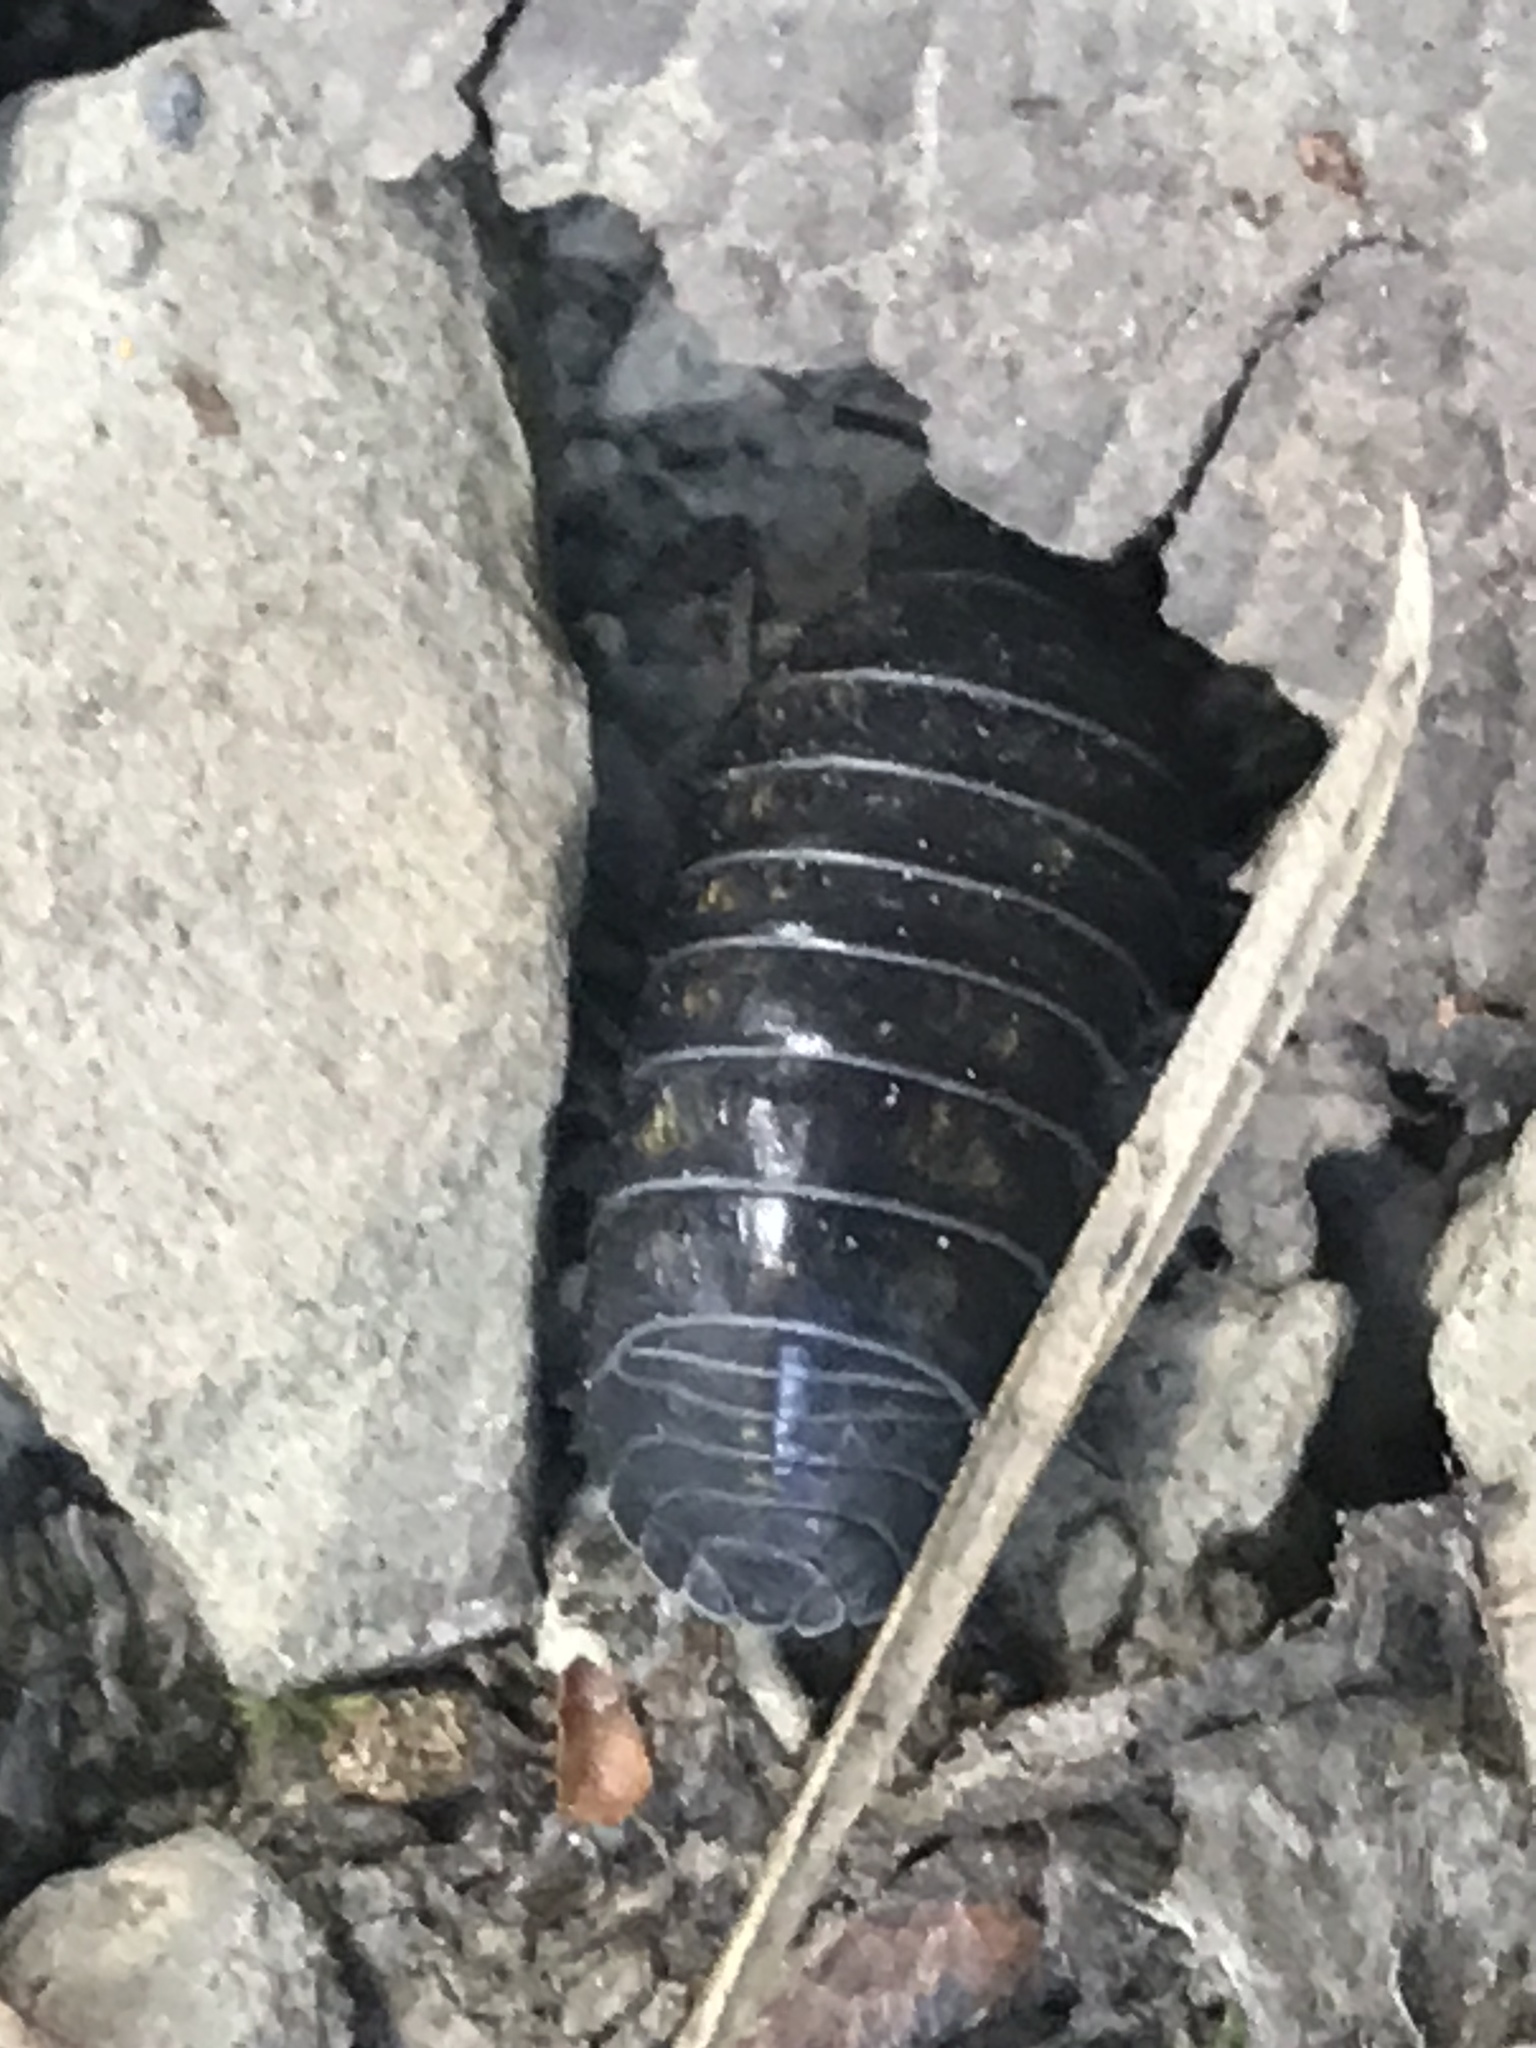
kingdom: Animalia
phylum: Arthropoda
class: Malacostraca
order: Isopoda
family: Armadillidiidae
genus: Armadillidium
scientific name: Armadillidium vulgare
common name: Common pill woodlouse
